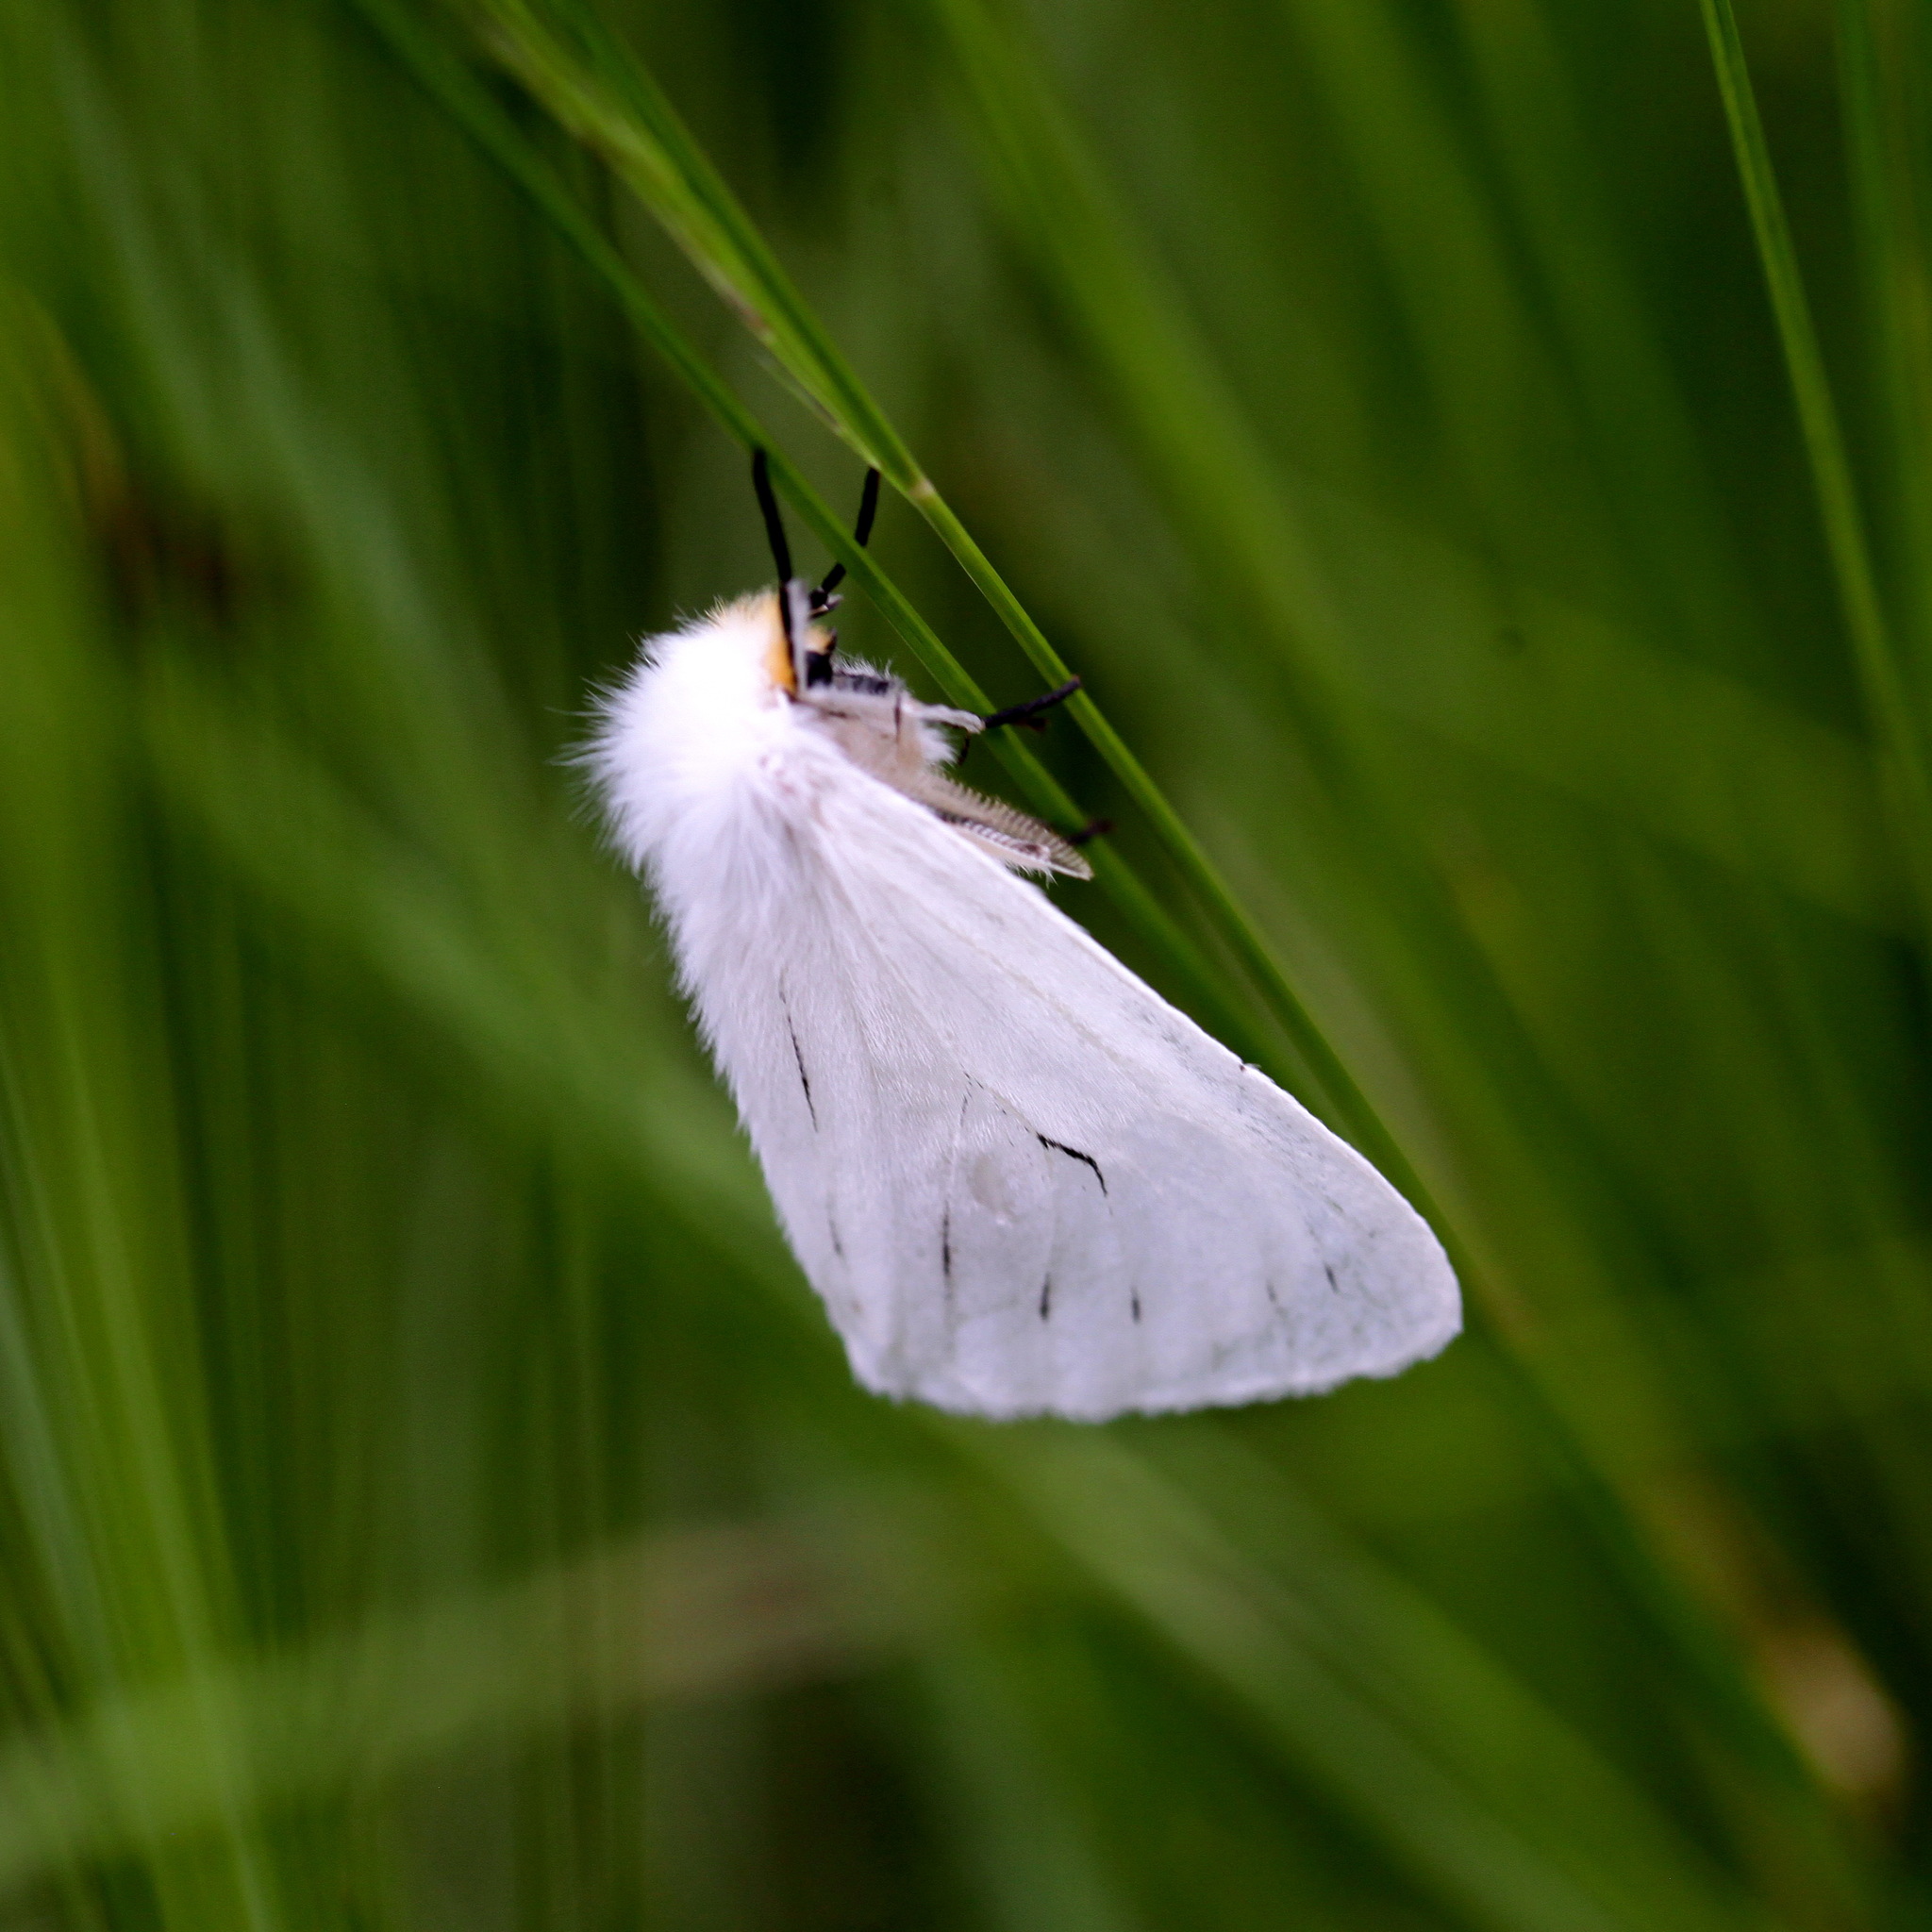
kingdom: Animalia
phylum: Arthropoda
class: Insecta
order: Lepidoptera
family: Erebidae
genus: Creagra
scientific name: Creagra liturata
